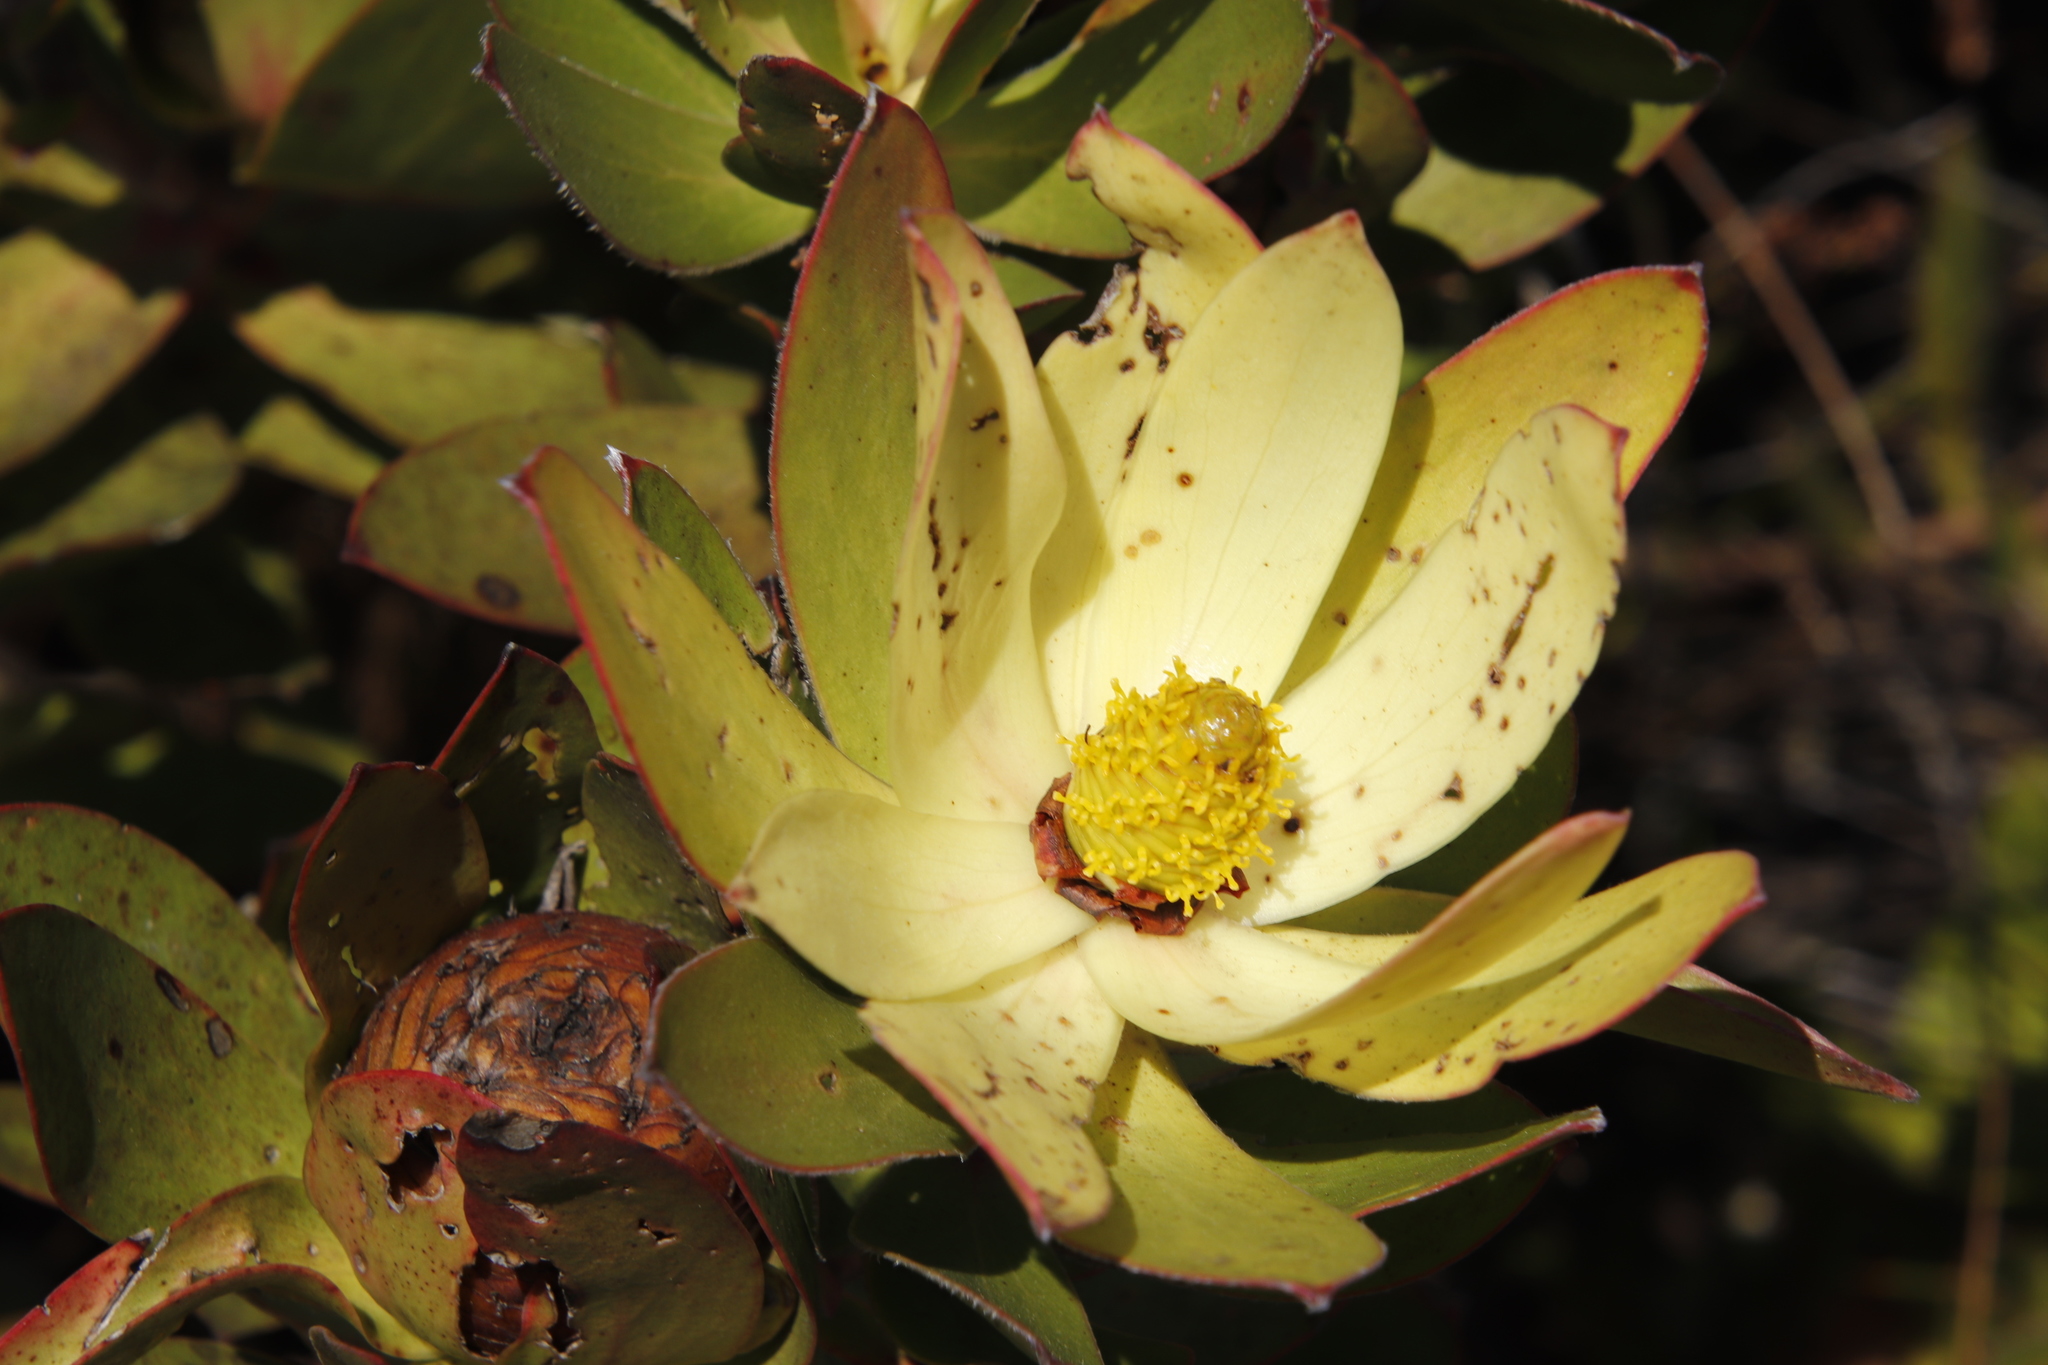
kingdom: Plantae
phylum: Tracheophyta
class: Magnoliopsida
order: Proteales
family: Proteaceae
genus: Leucadendron
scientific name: Leucadendron gandogeri
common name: Broad-leaf conebush
